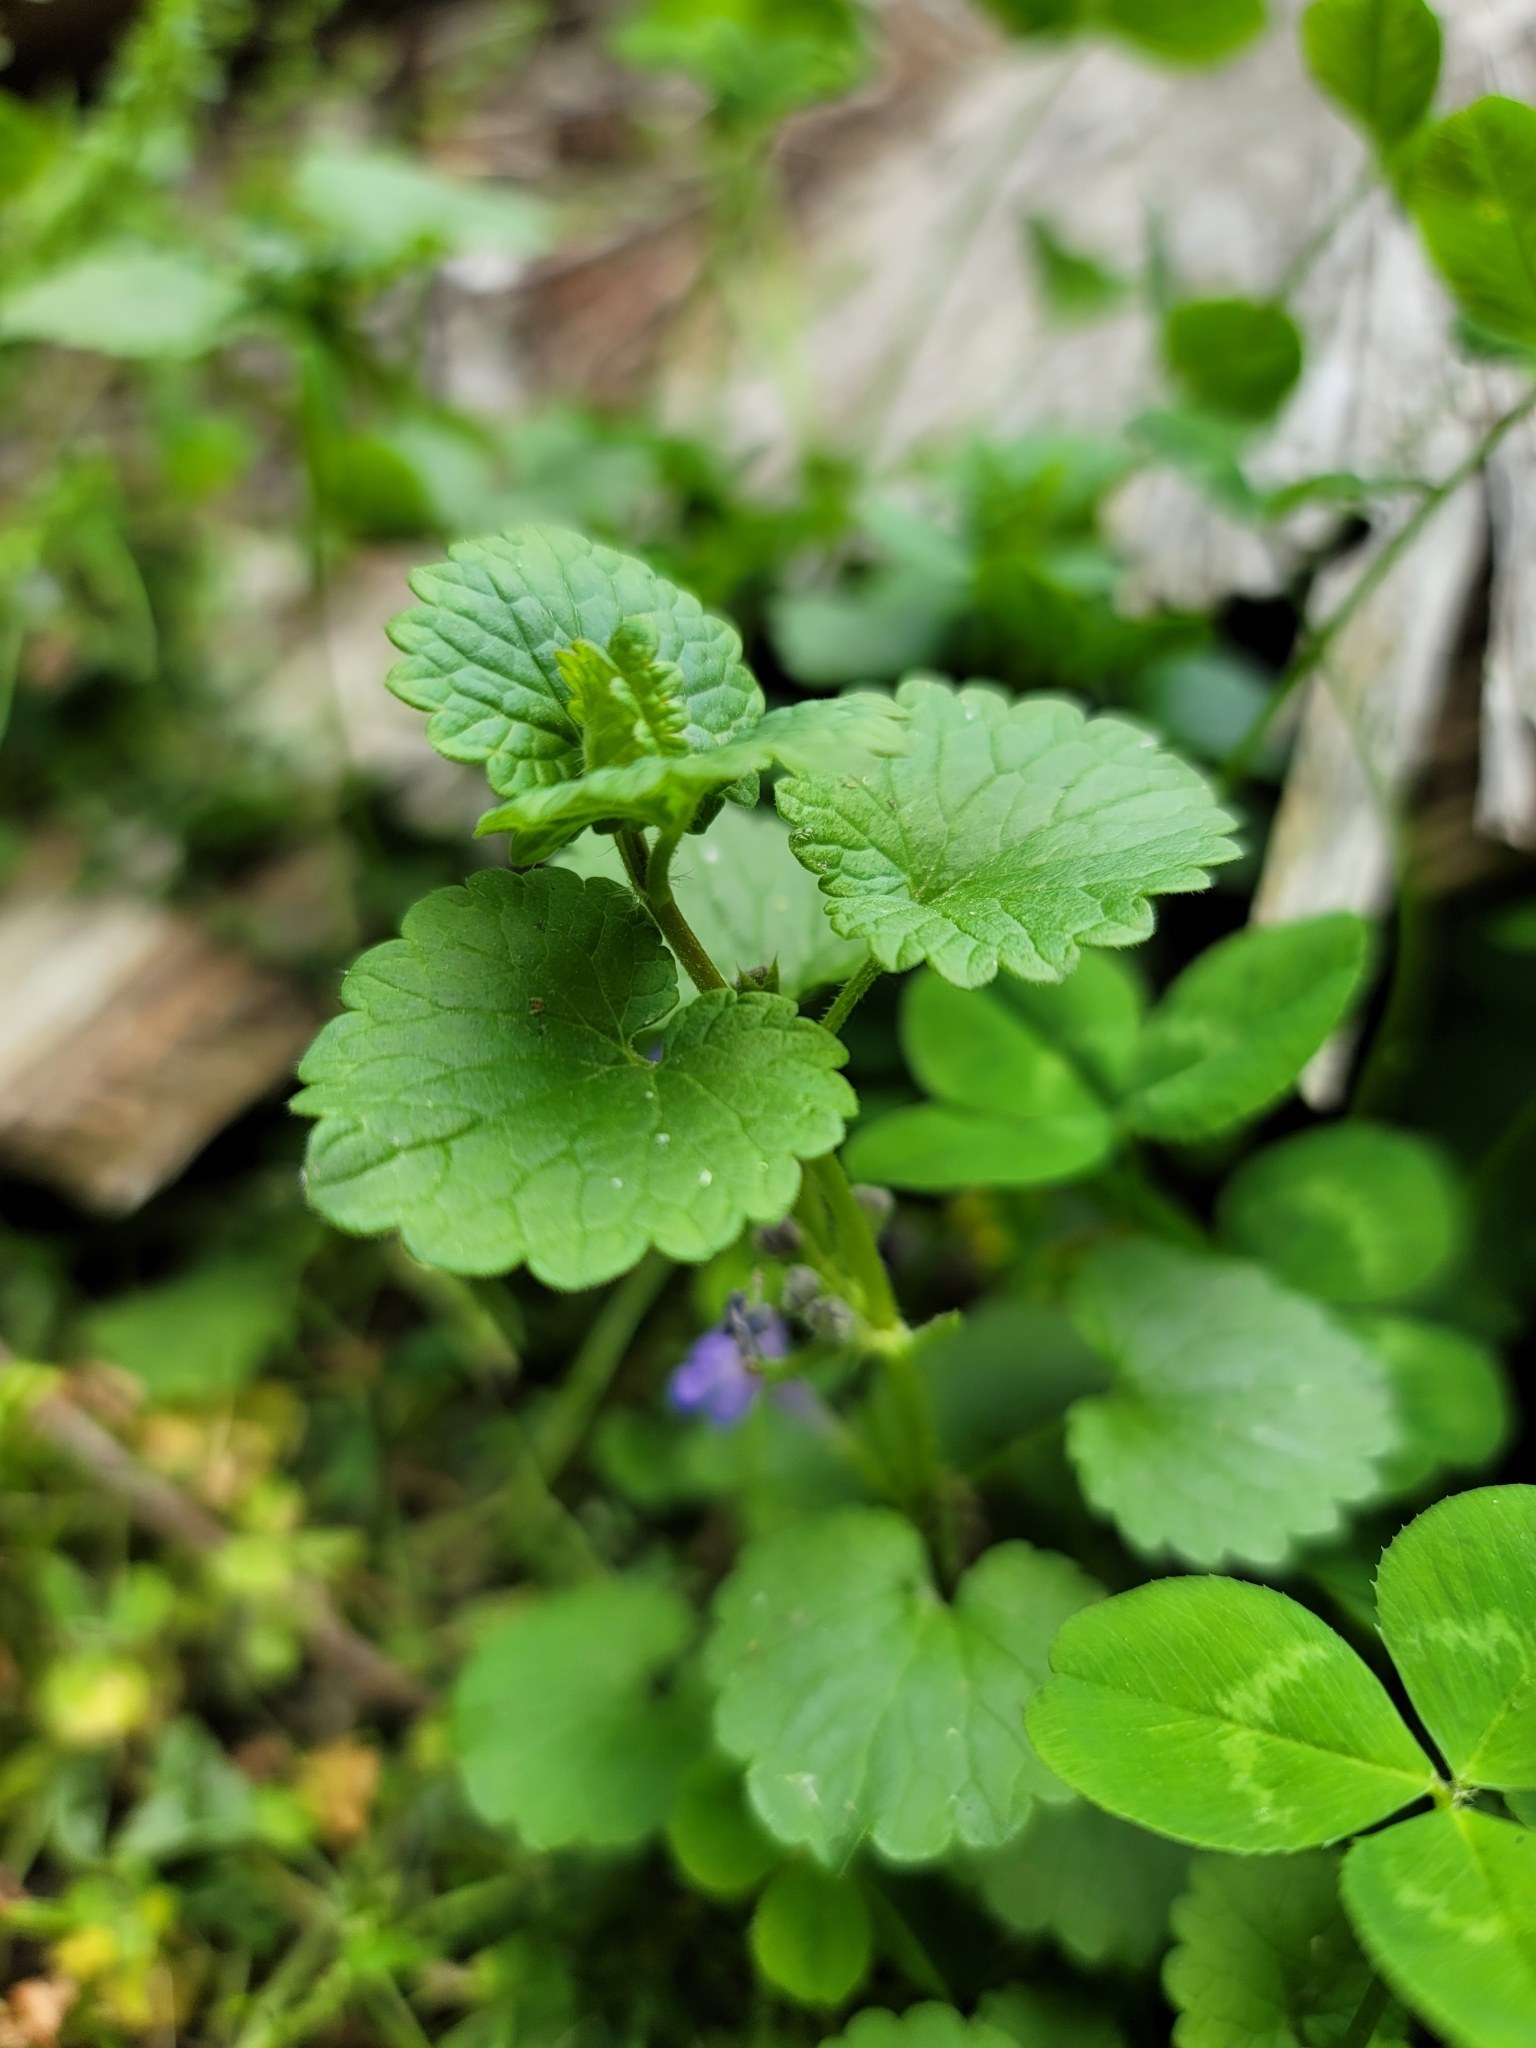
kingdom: Plantae
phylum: Tracheophyta
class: Magnoliopsida
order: Lamiales
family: Lamiaceae
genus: Glechoma
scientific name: Glechoma hederacea
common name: Ground ivy
